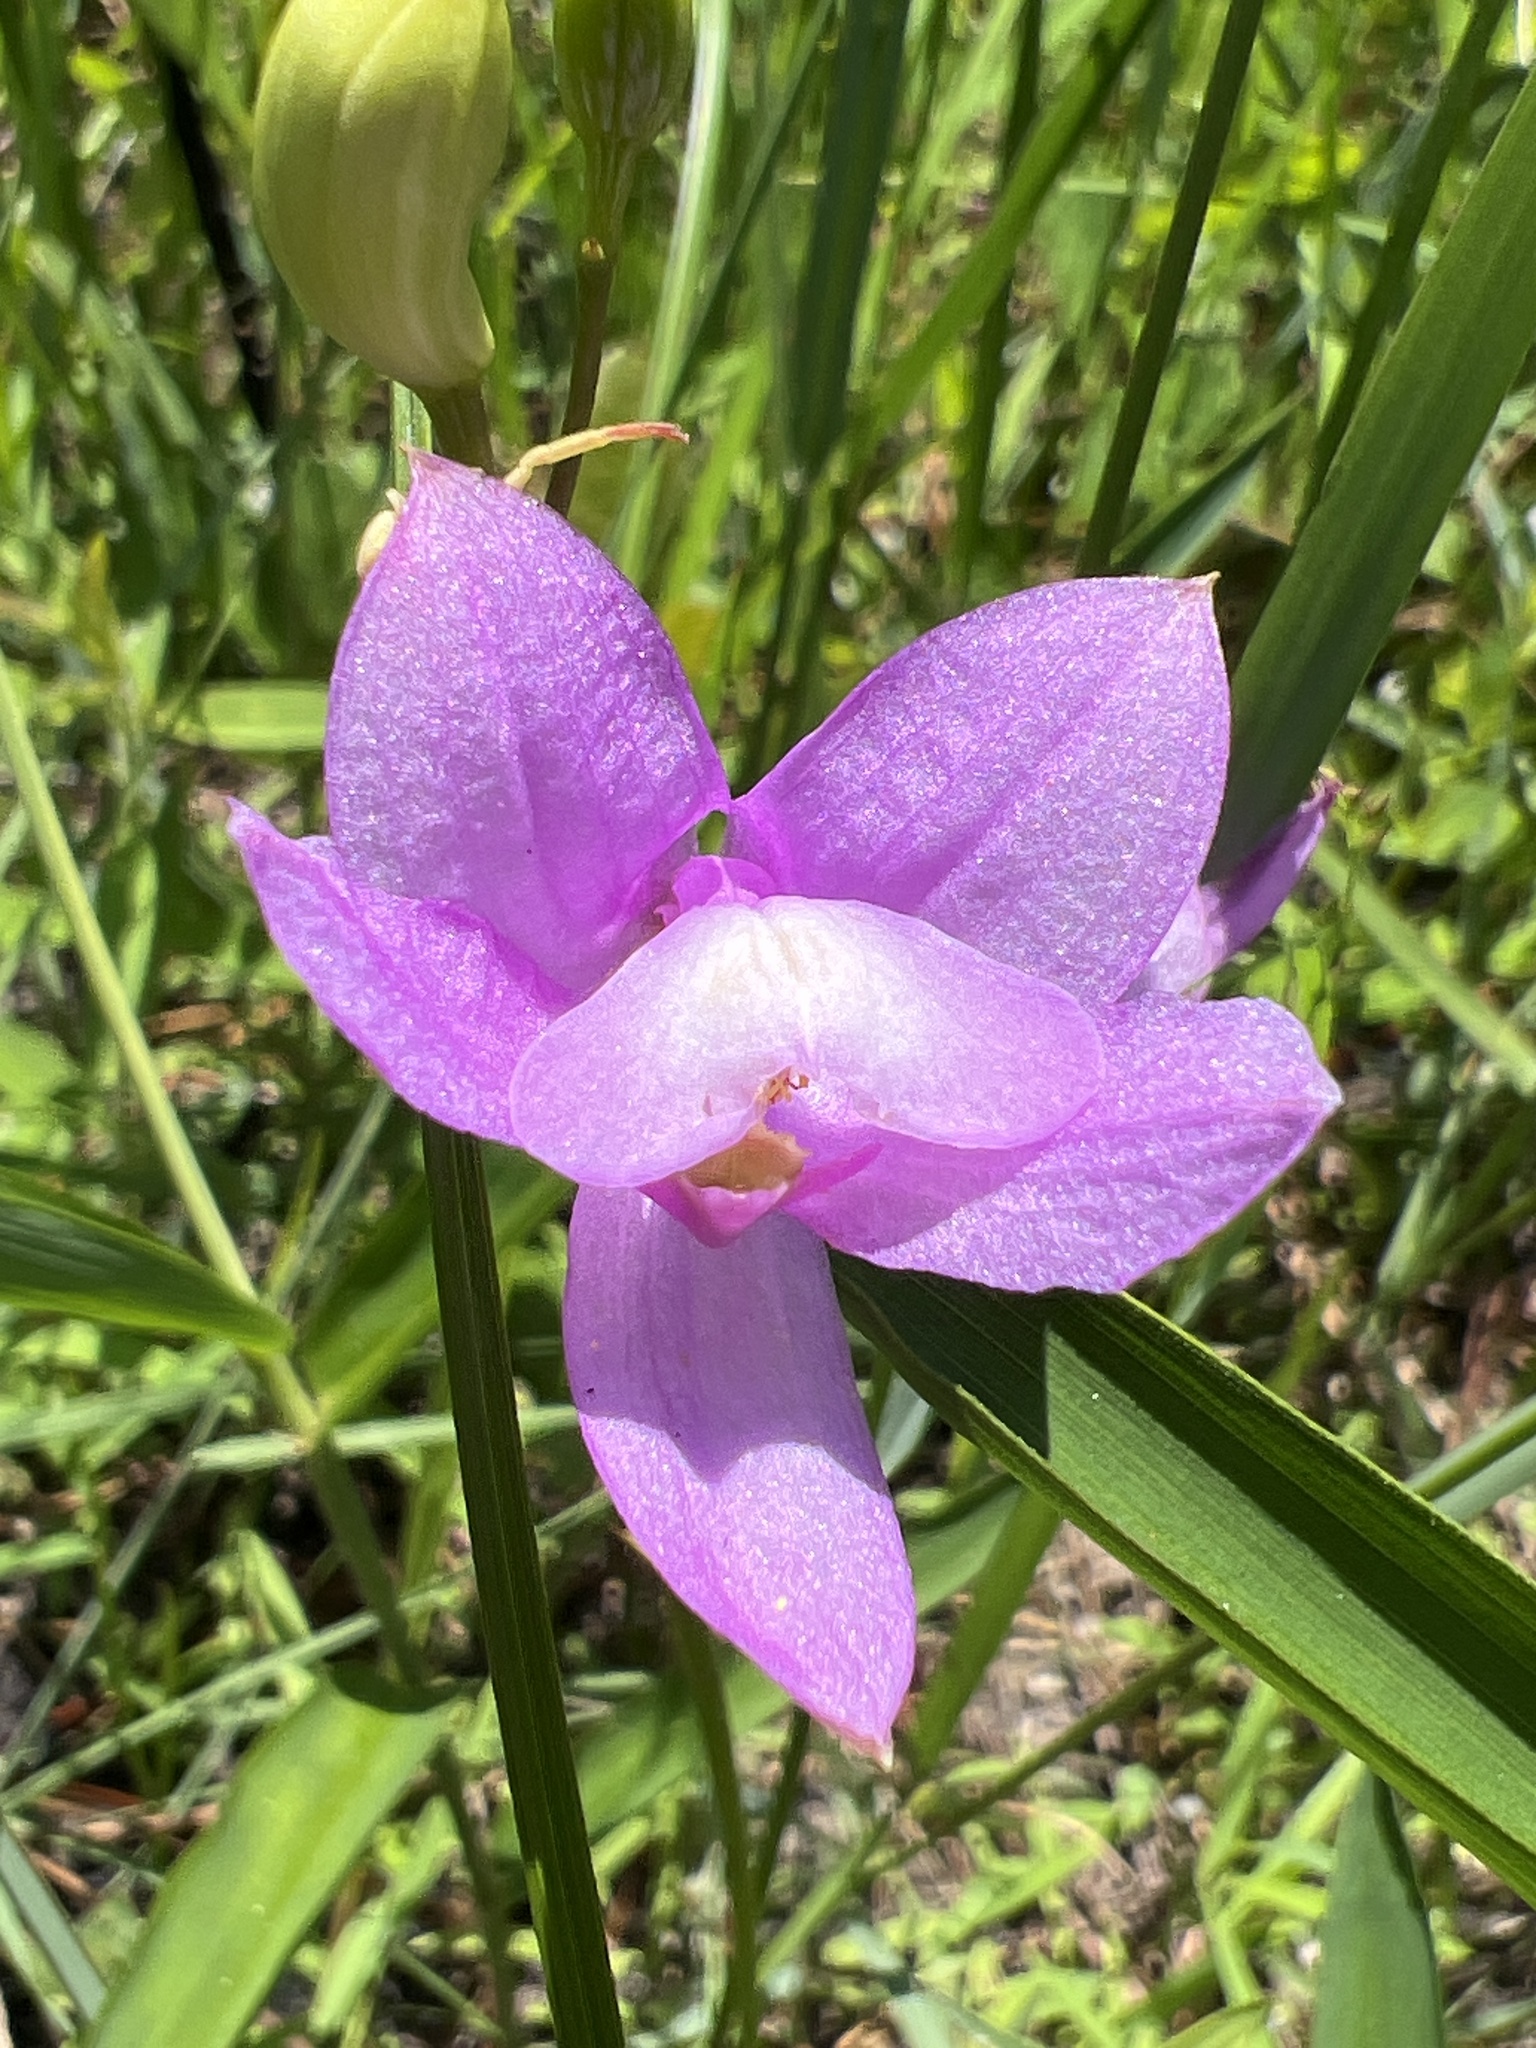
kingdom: Plantae
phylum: Tracheophyta
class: Liliopsida
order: Asparagales
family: Orchidaceae
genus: Calopogon
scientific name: Calopogon tuberosus
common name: Grass-pink
